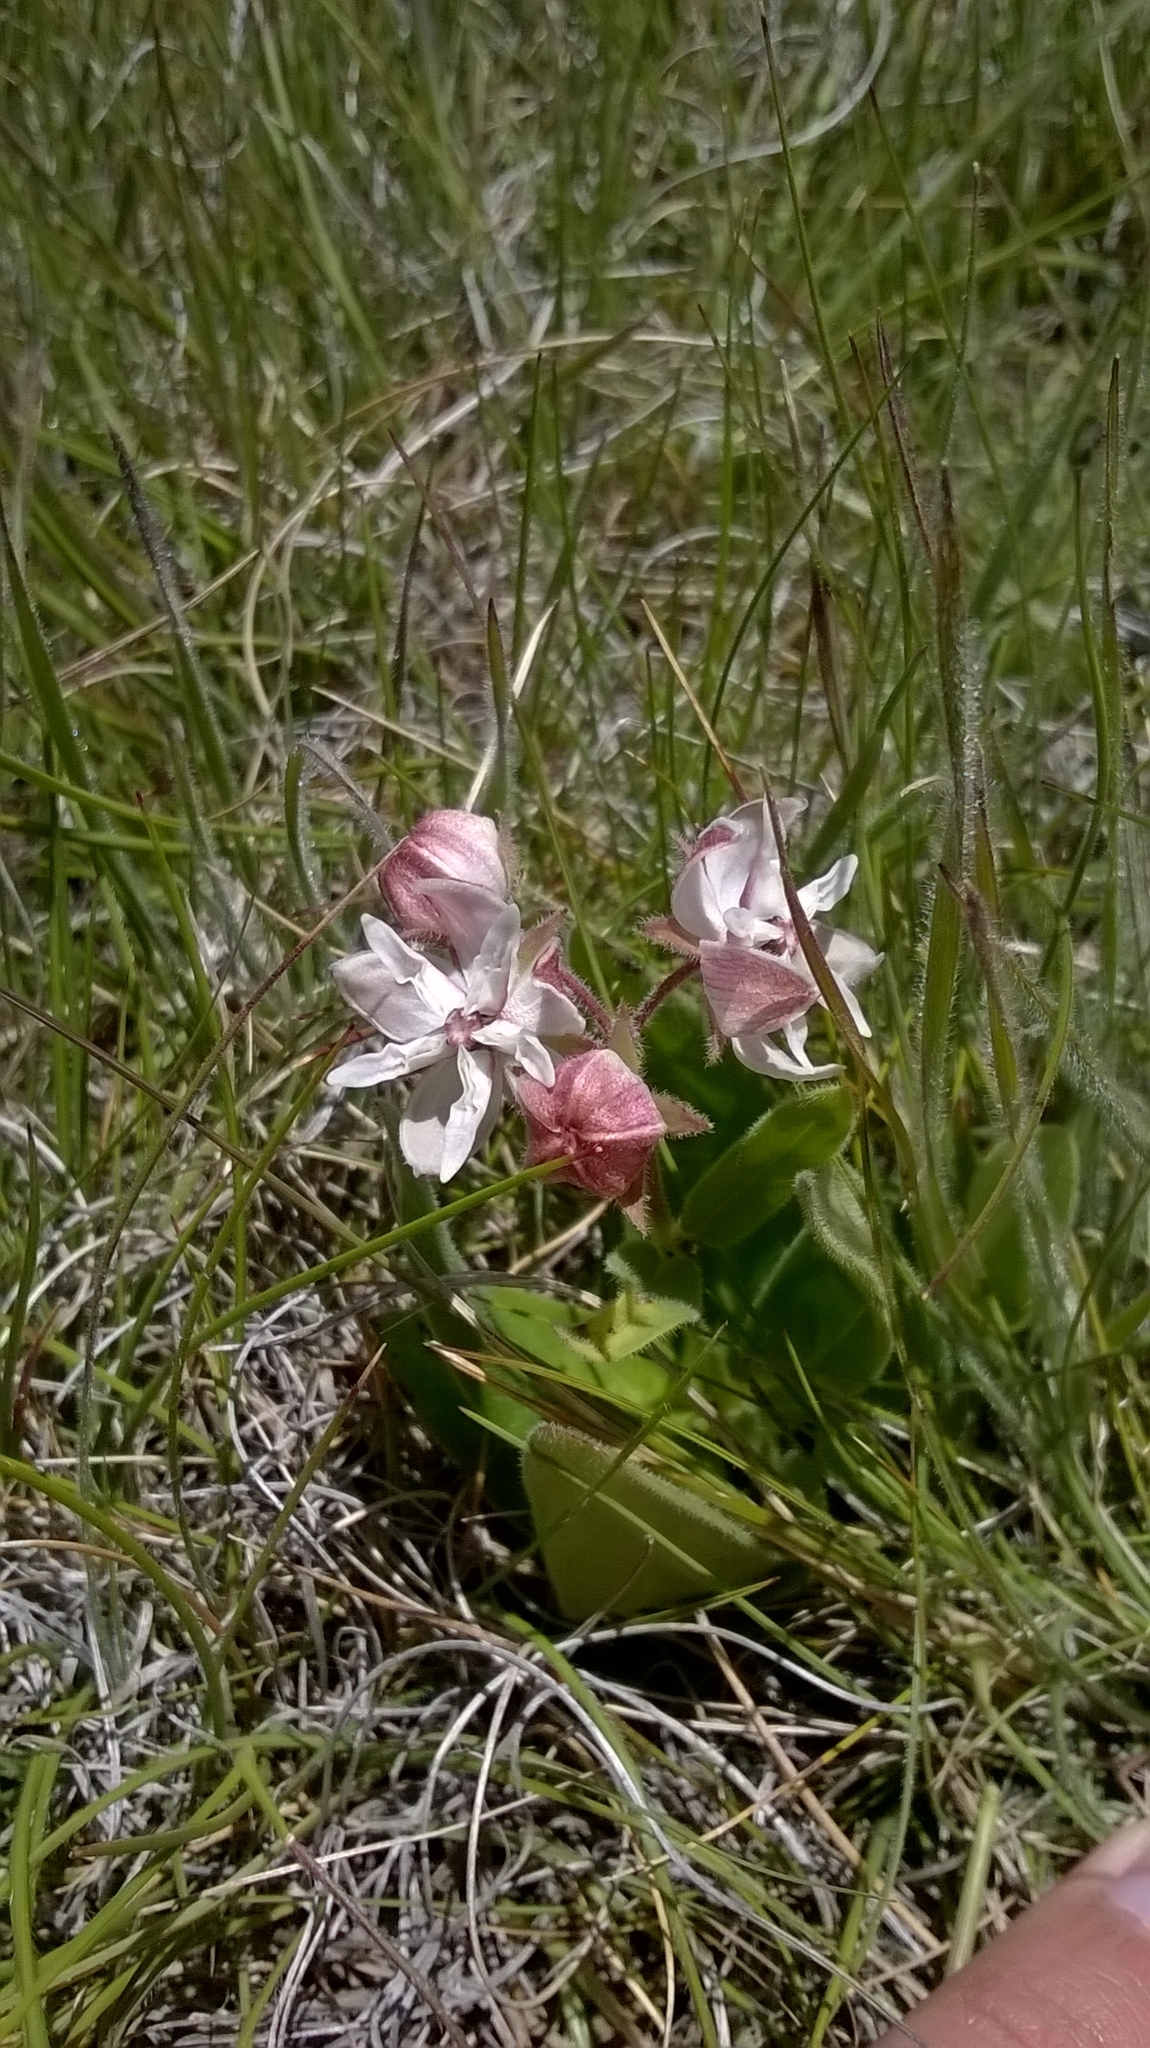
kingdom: Plantae
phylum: Tracheophyta
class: Magnoliopsida
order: Gentianales
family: Apocynaceae
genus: Asclepias
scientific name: Asclepias humilis
